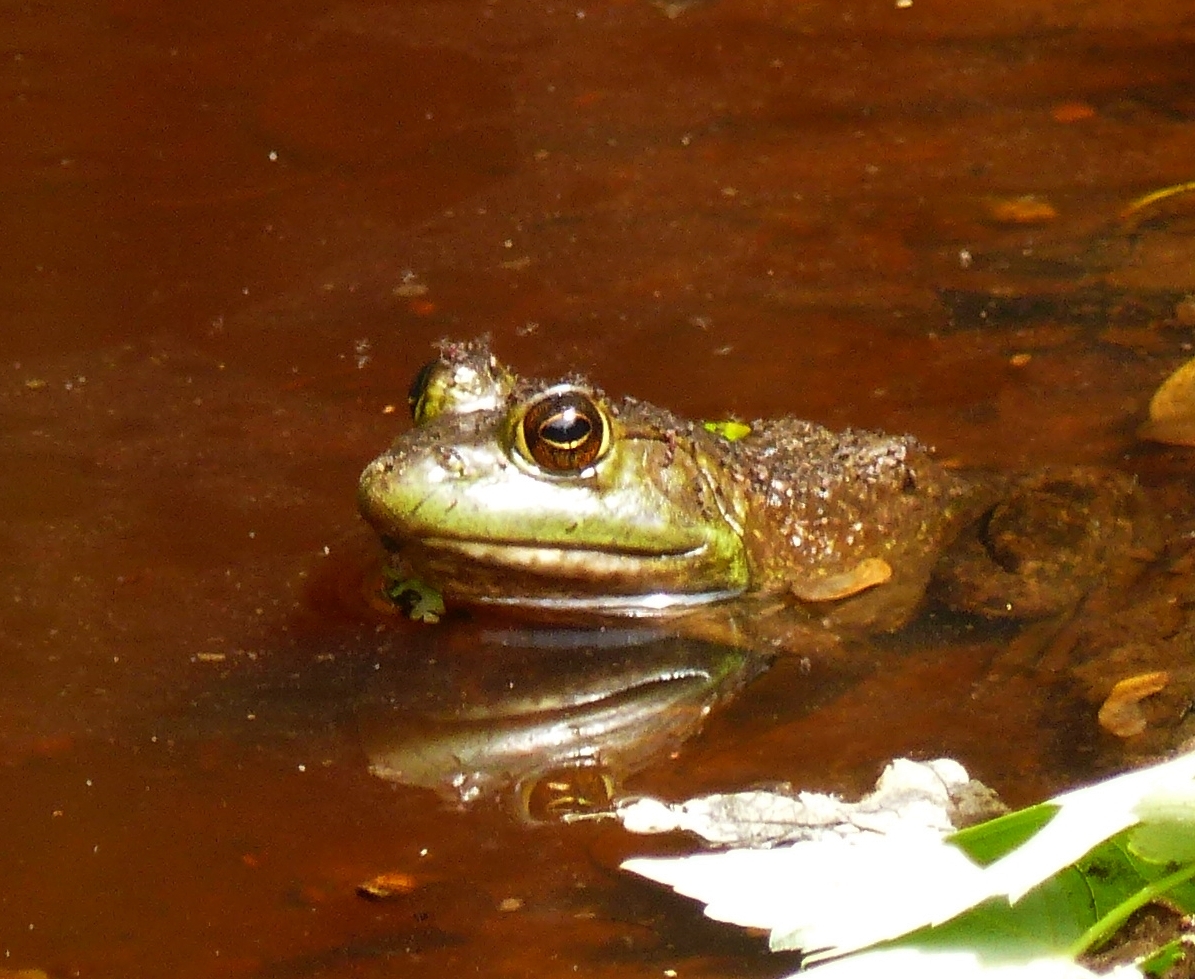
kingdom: Animalia
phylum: Chordata
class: Amphibia
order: Anura
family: Ranidae
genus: Lithobates
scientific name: Lithobates catesbeianus
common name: American bullfrog
